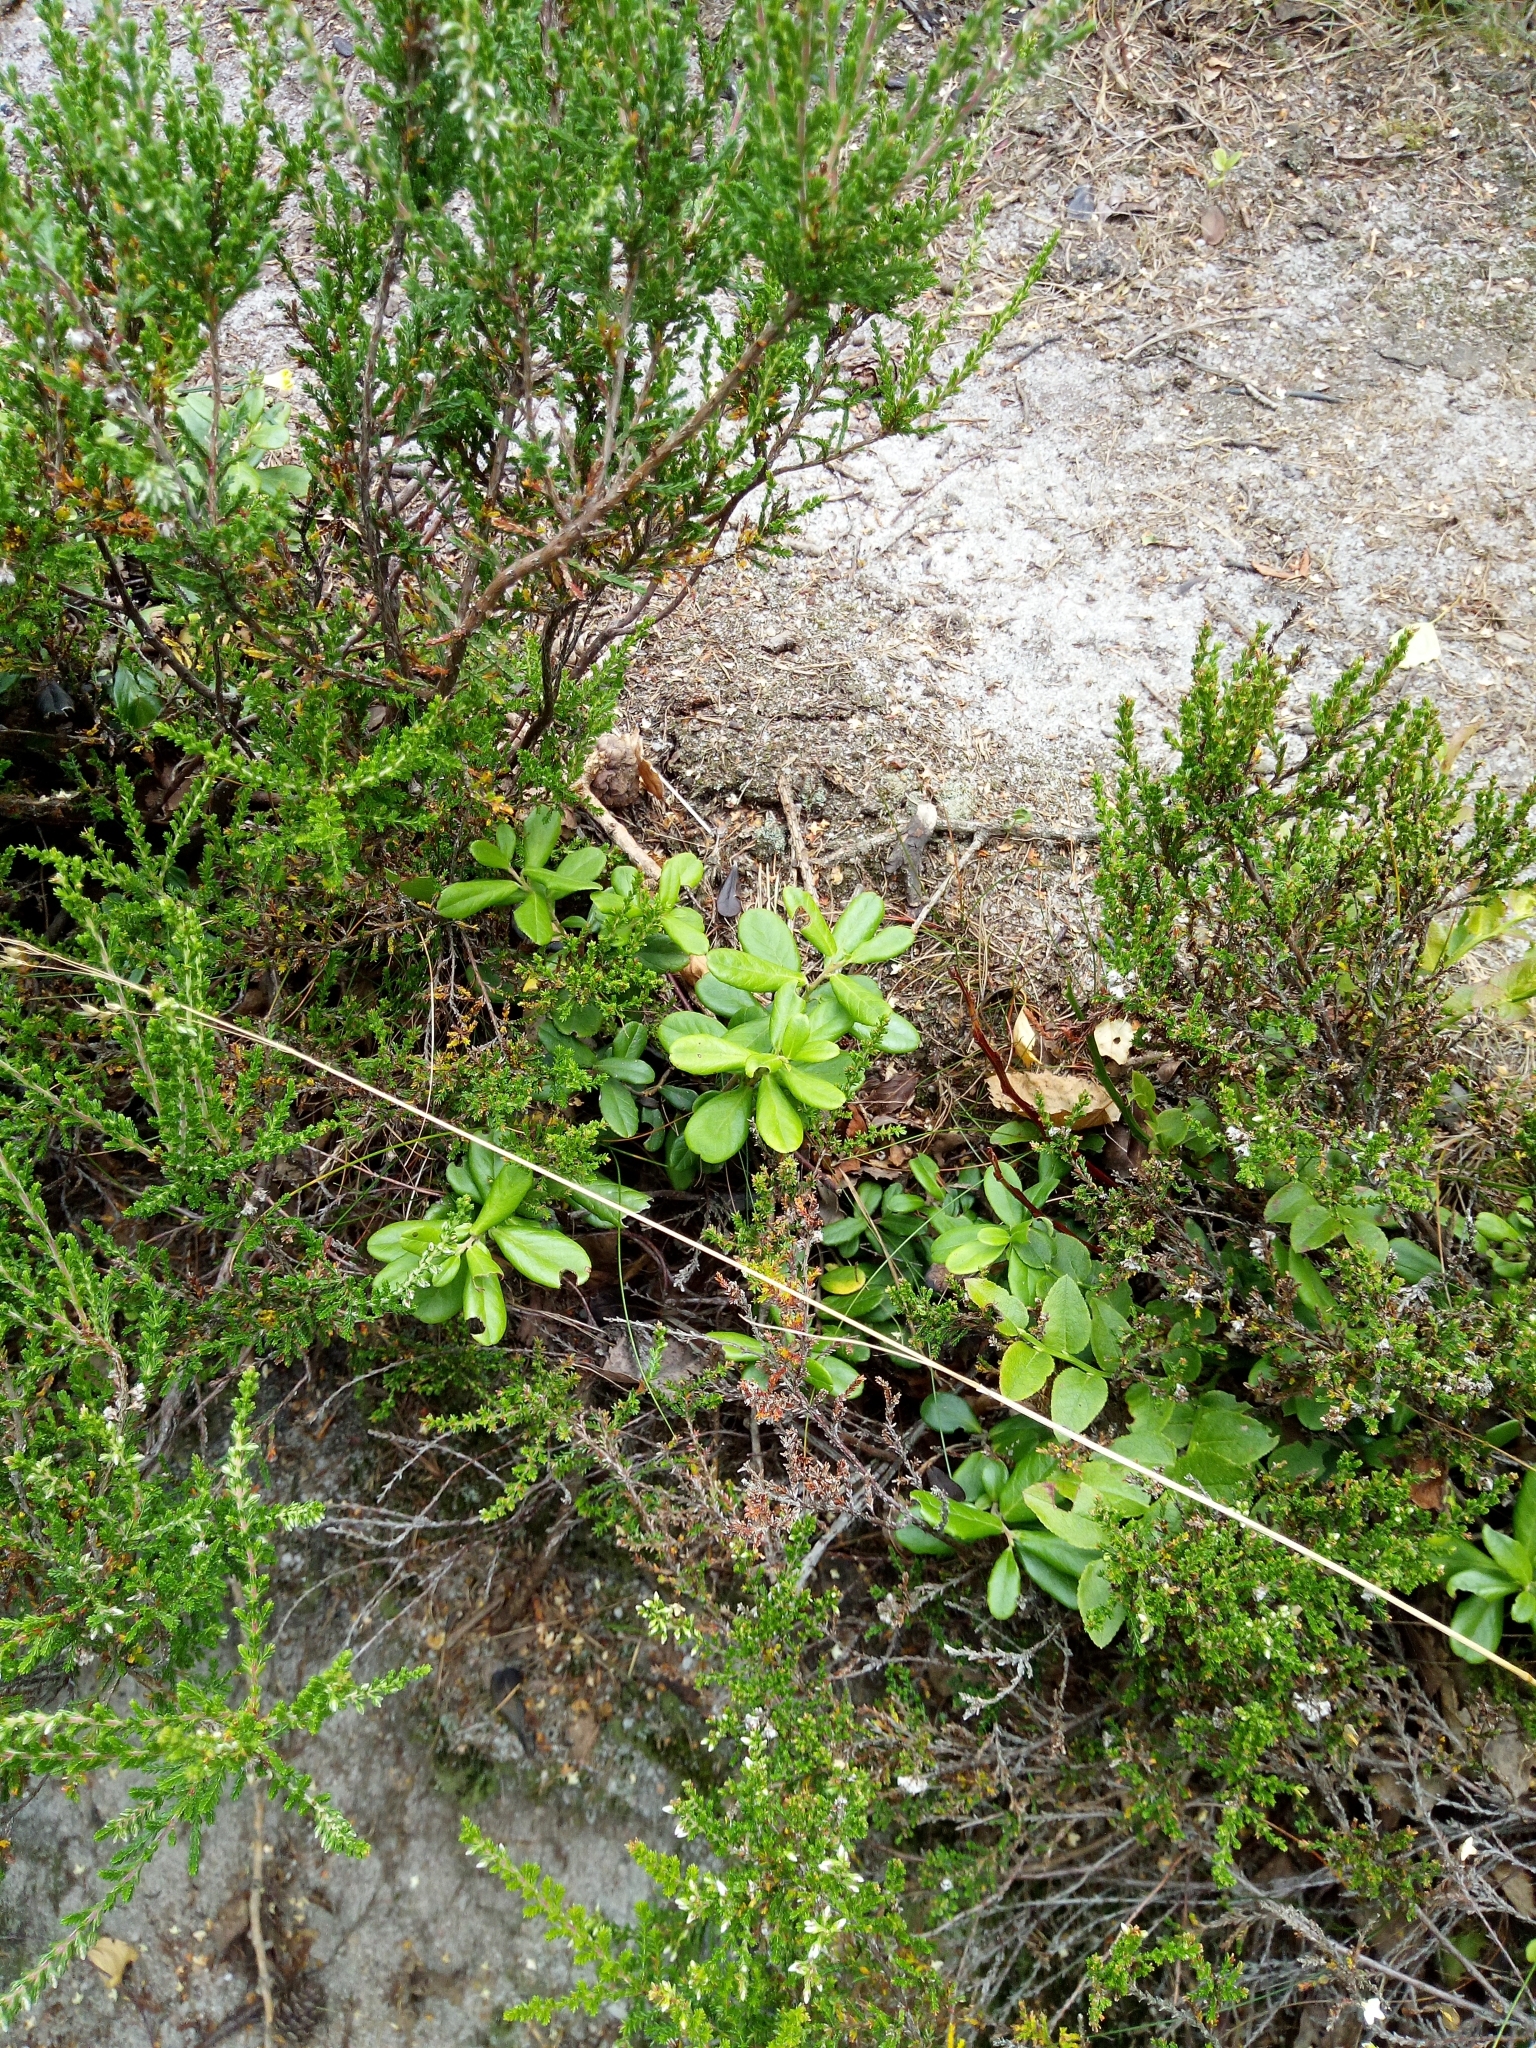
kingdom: Plantae
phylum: Tracheophyta
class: Magnoliopsida
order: Ericales
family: Ericaceae
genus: Vaccinium
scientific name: Vaccinium vitis-idaea
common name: Cowberry
